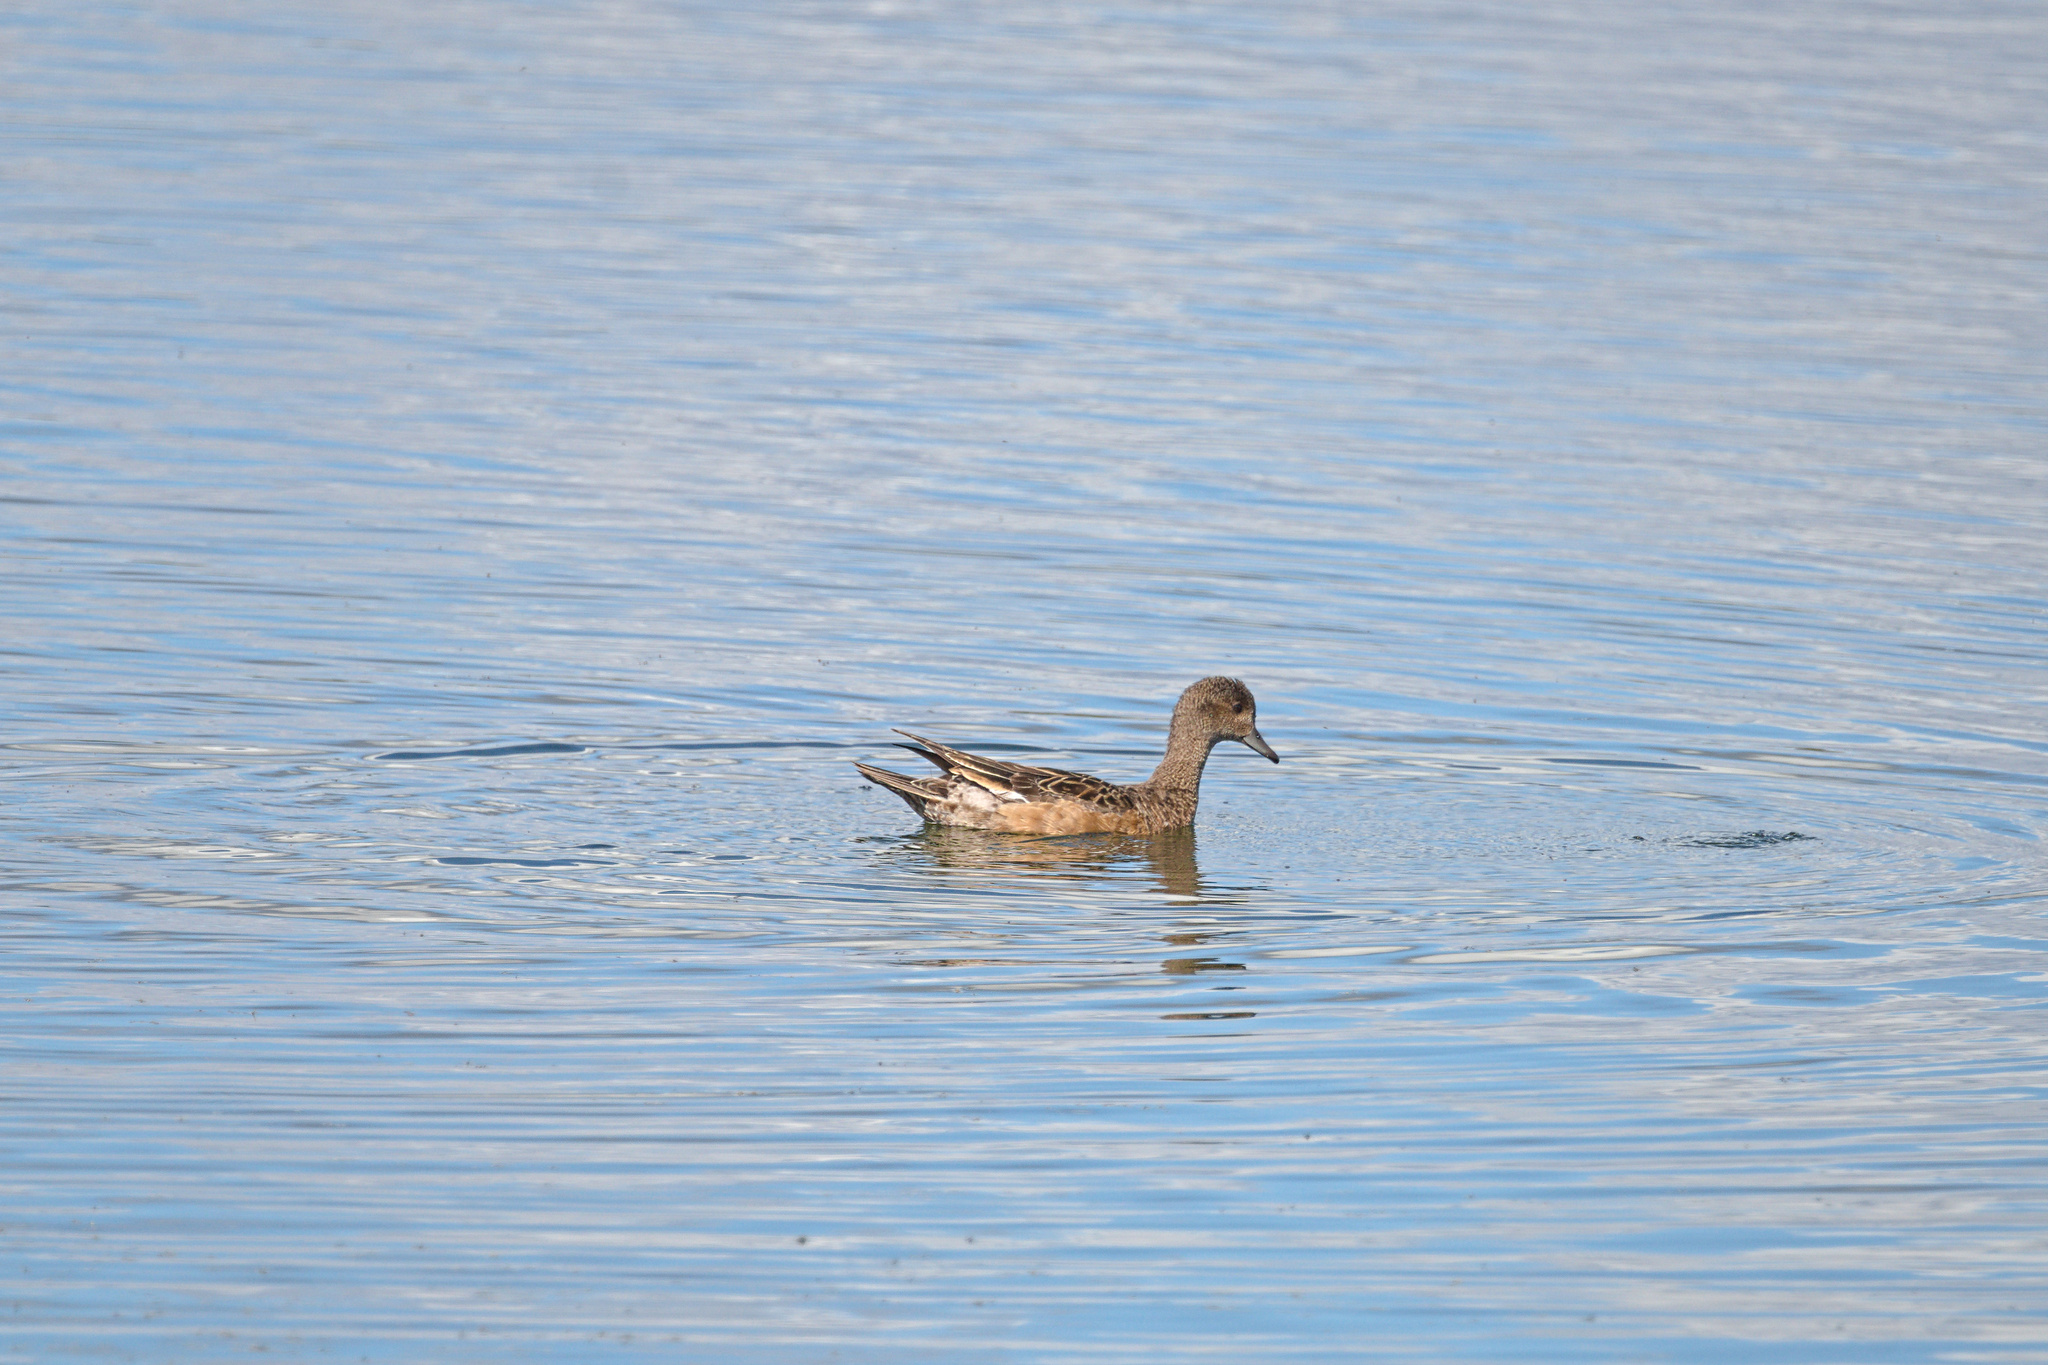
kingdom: Animalia
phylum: Chordata
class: Aves
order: Anseriformes
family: Anatidae
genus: Mareca
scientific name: Mareca penelope
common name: Eurasian wigeon
